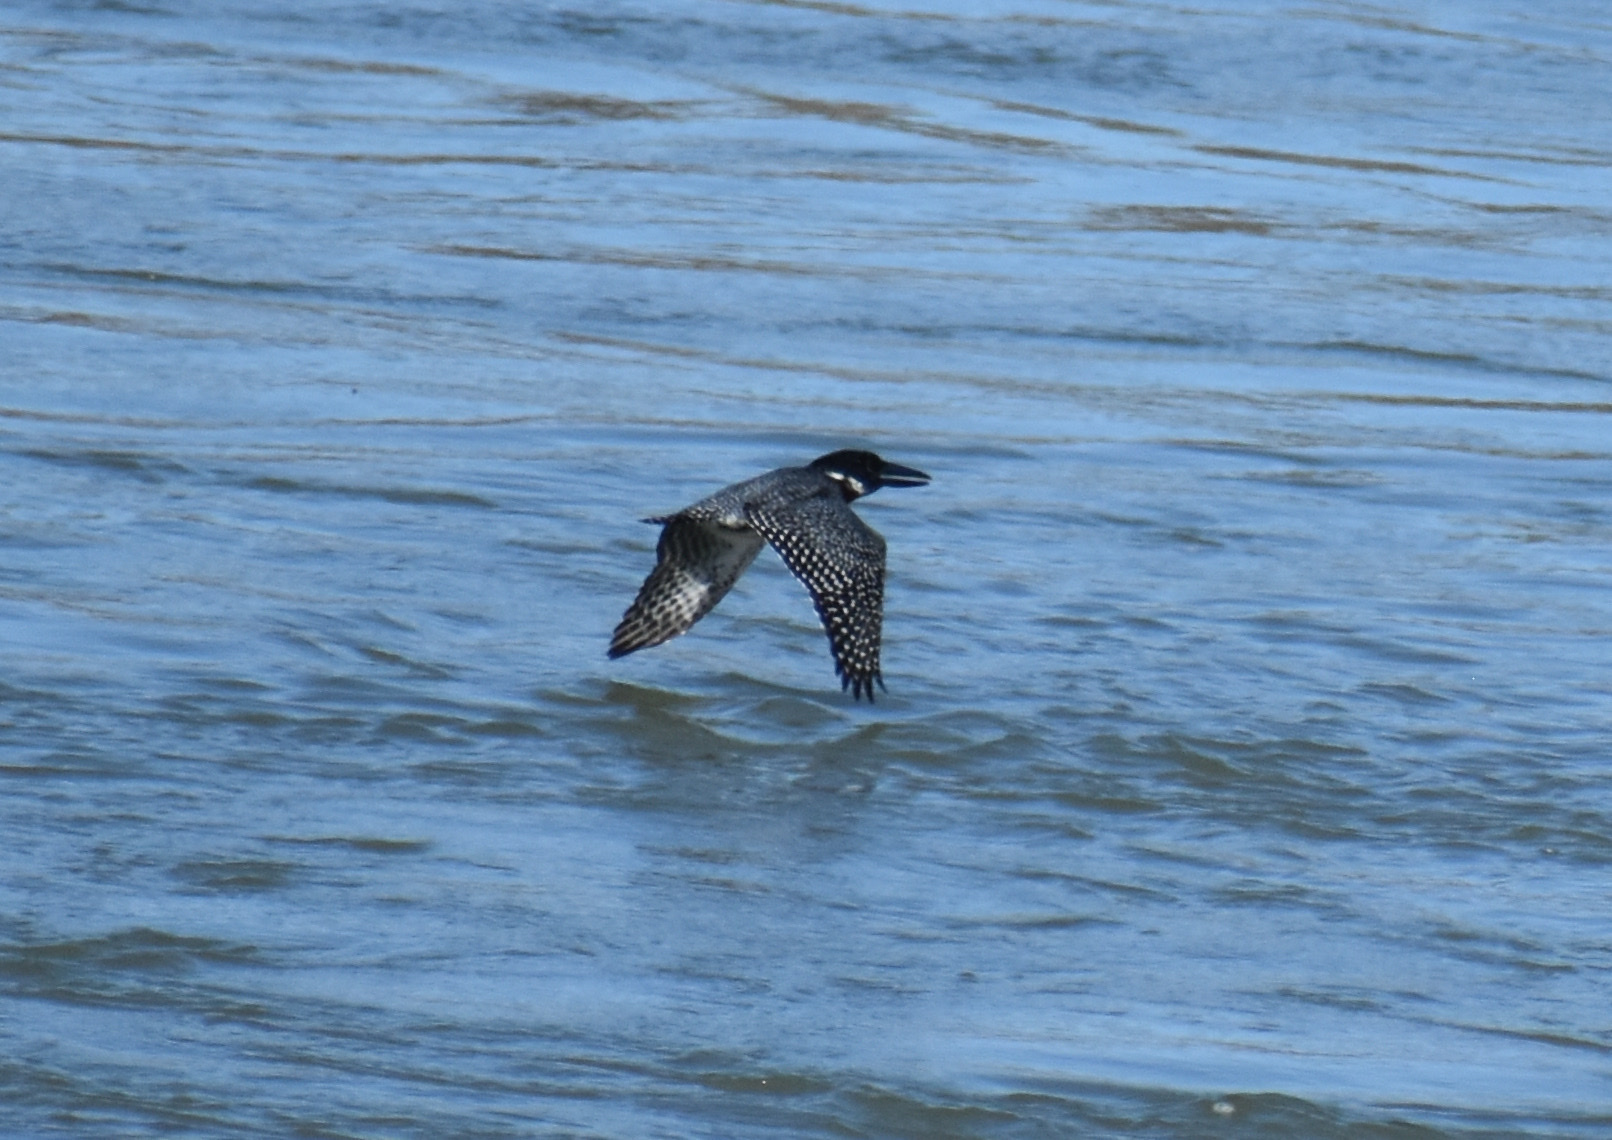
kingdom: Animalia
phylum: Chordata
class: Aves
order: Coraciiformes
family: Alcedinidae
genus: Megaceryle
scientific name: Megaceryle maxima
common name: Giant kingfisher
